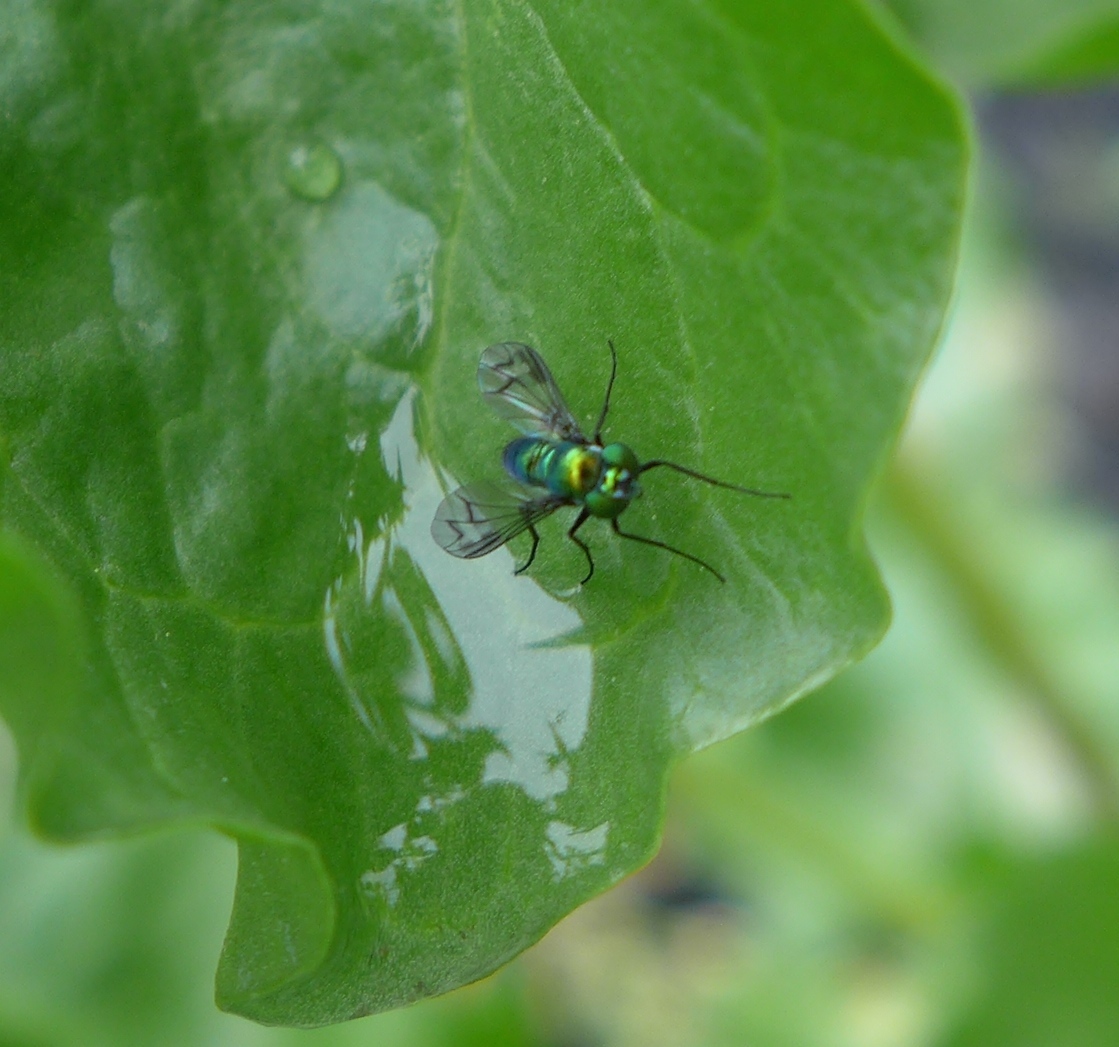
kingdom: Animalia
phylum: Arthropoda
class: Insecta
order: Diptera
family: Dolichopodidae
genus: Condylostylus
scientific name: Condylostylus occidentalis
